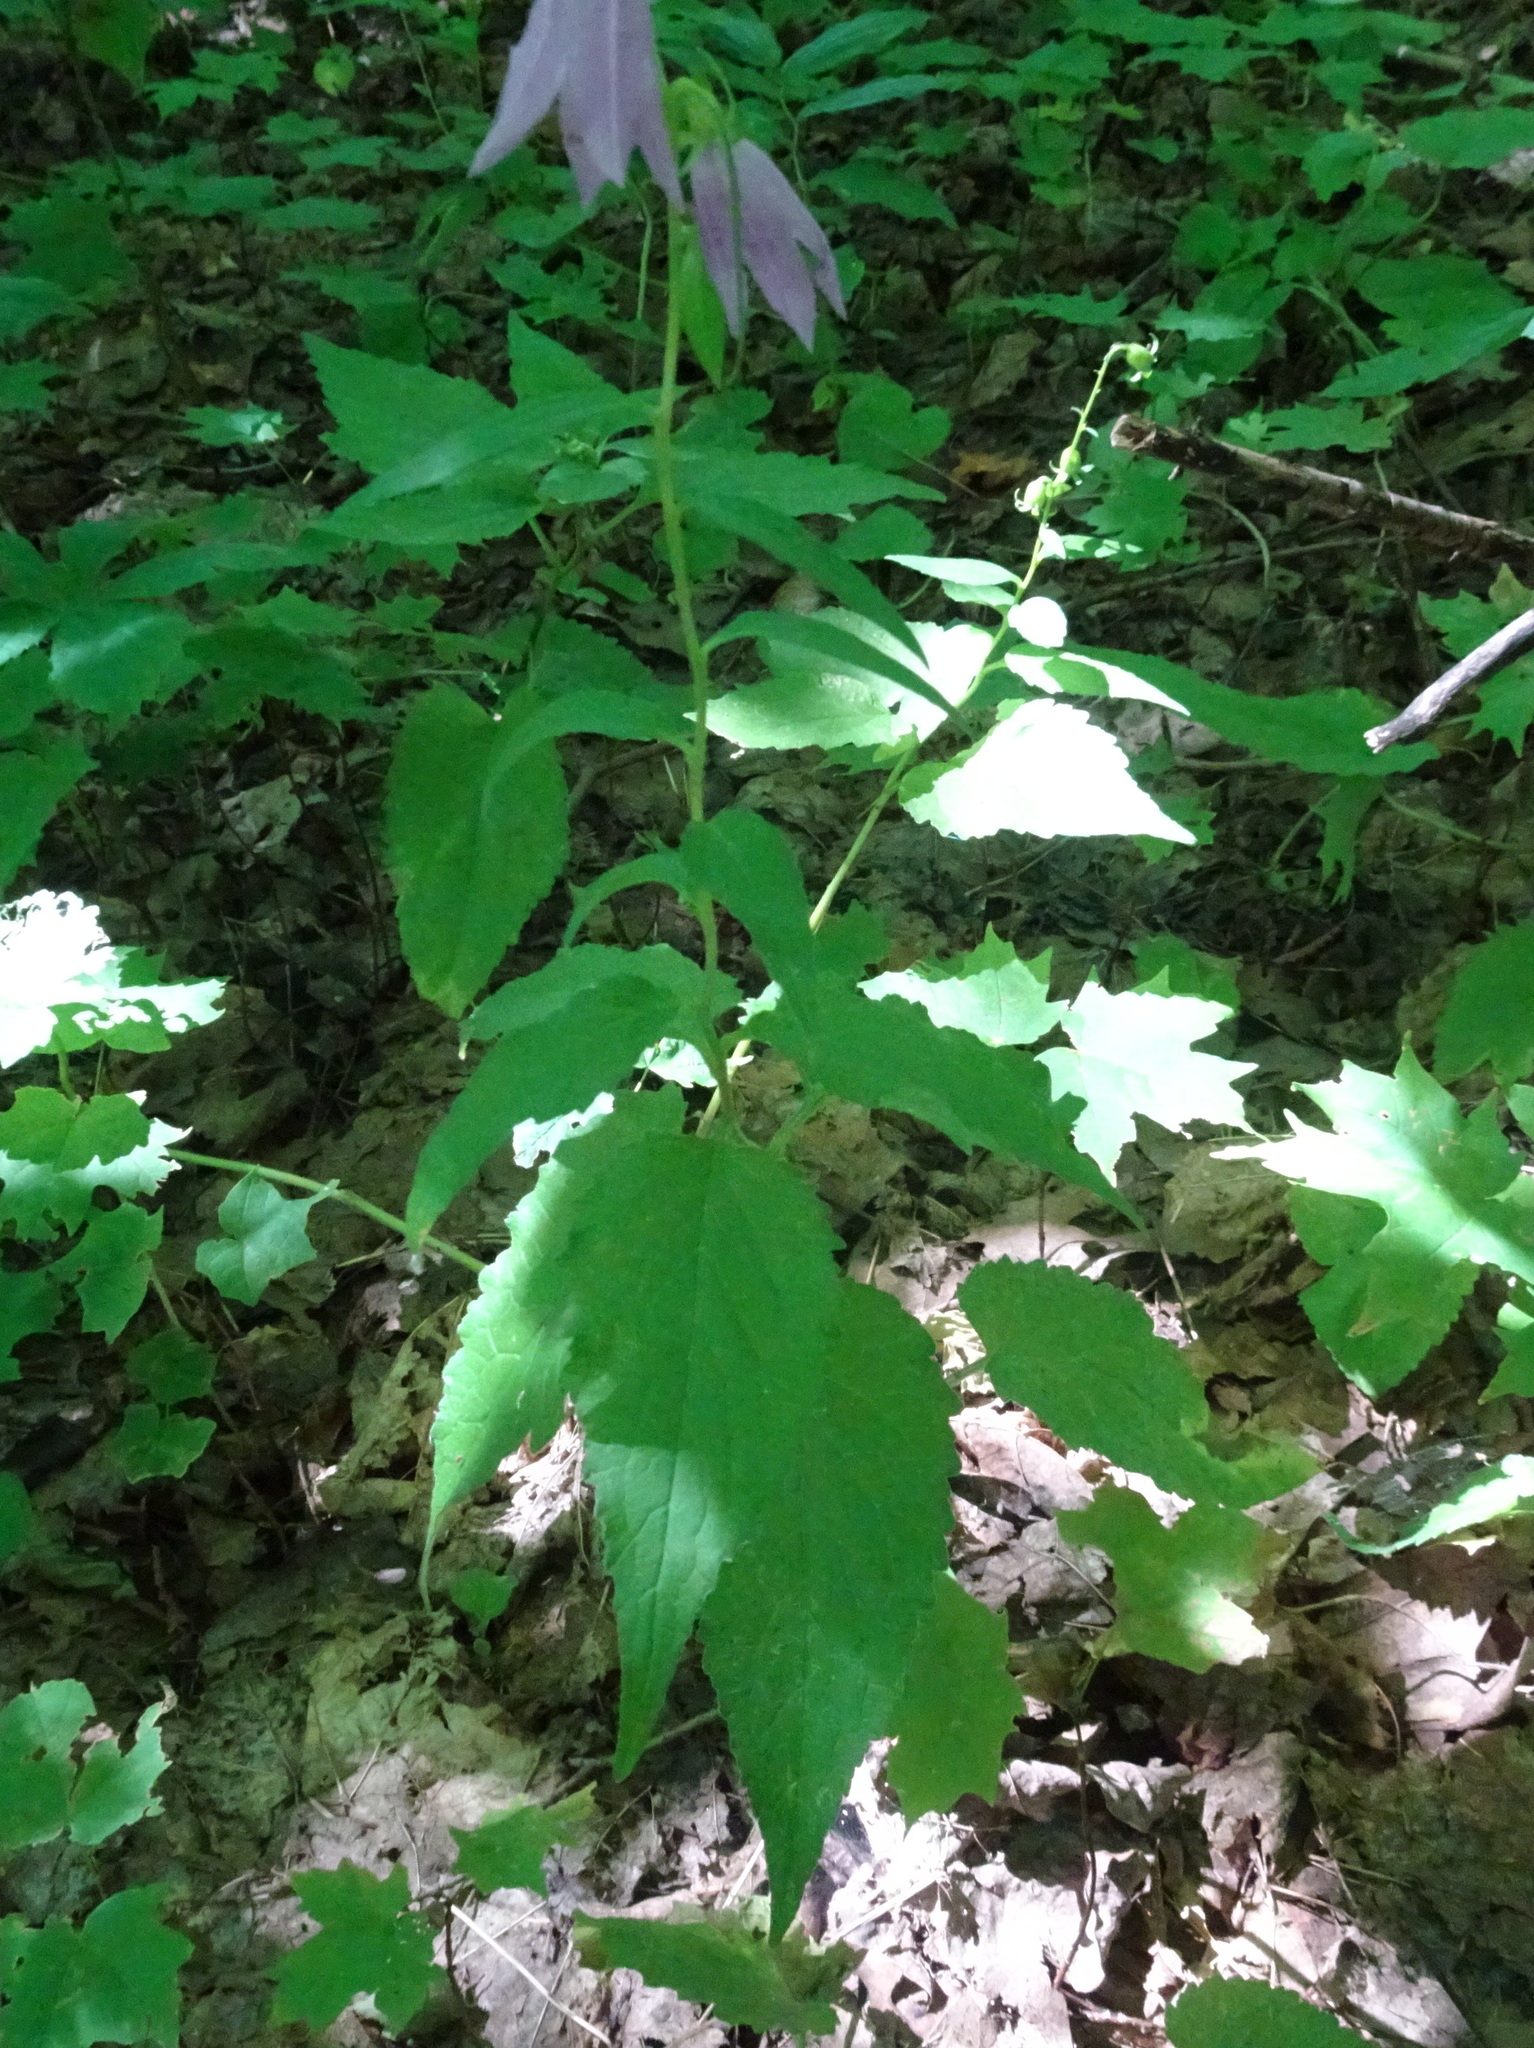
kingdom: Plantae
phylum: Tracheophyta
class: Magnoliopsida
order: Asterales
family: Campanulaceae
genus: Campanula
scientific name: Campanula rapunculoides
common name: Creeping bellflower
